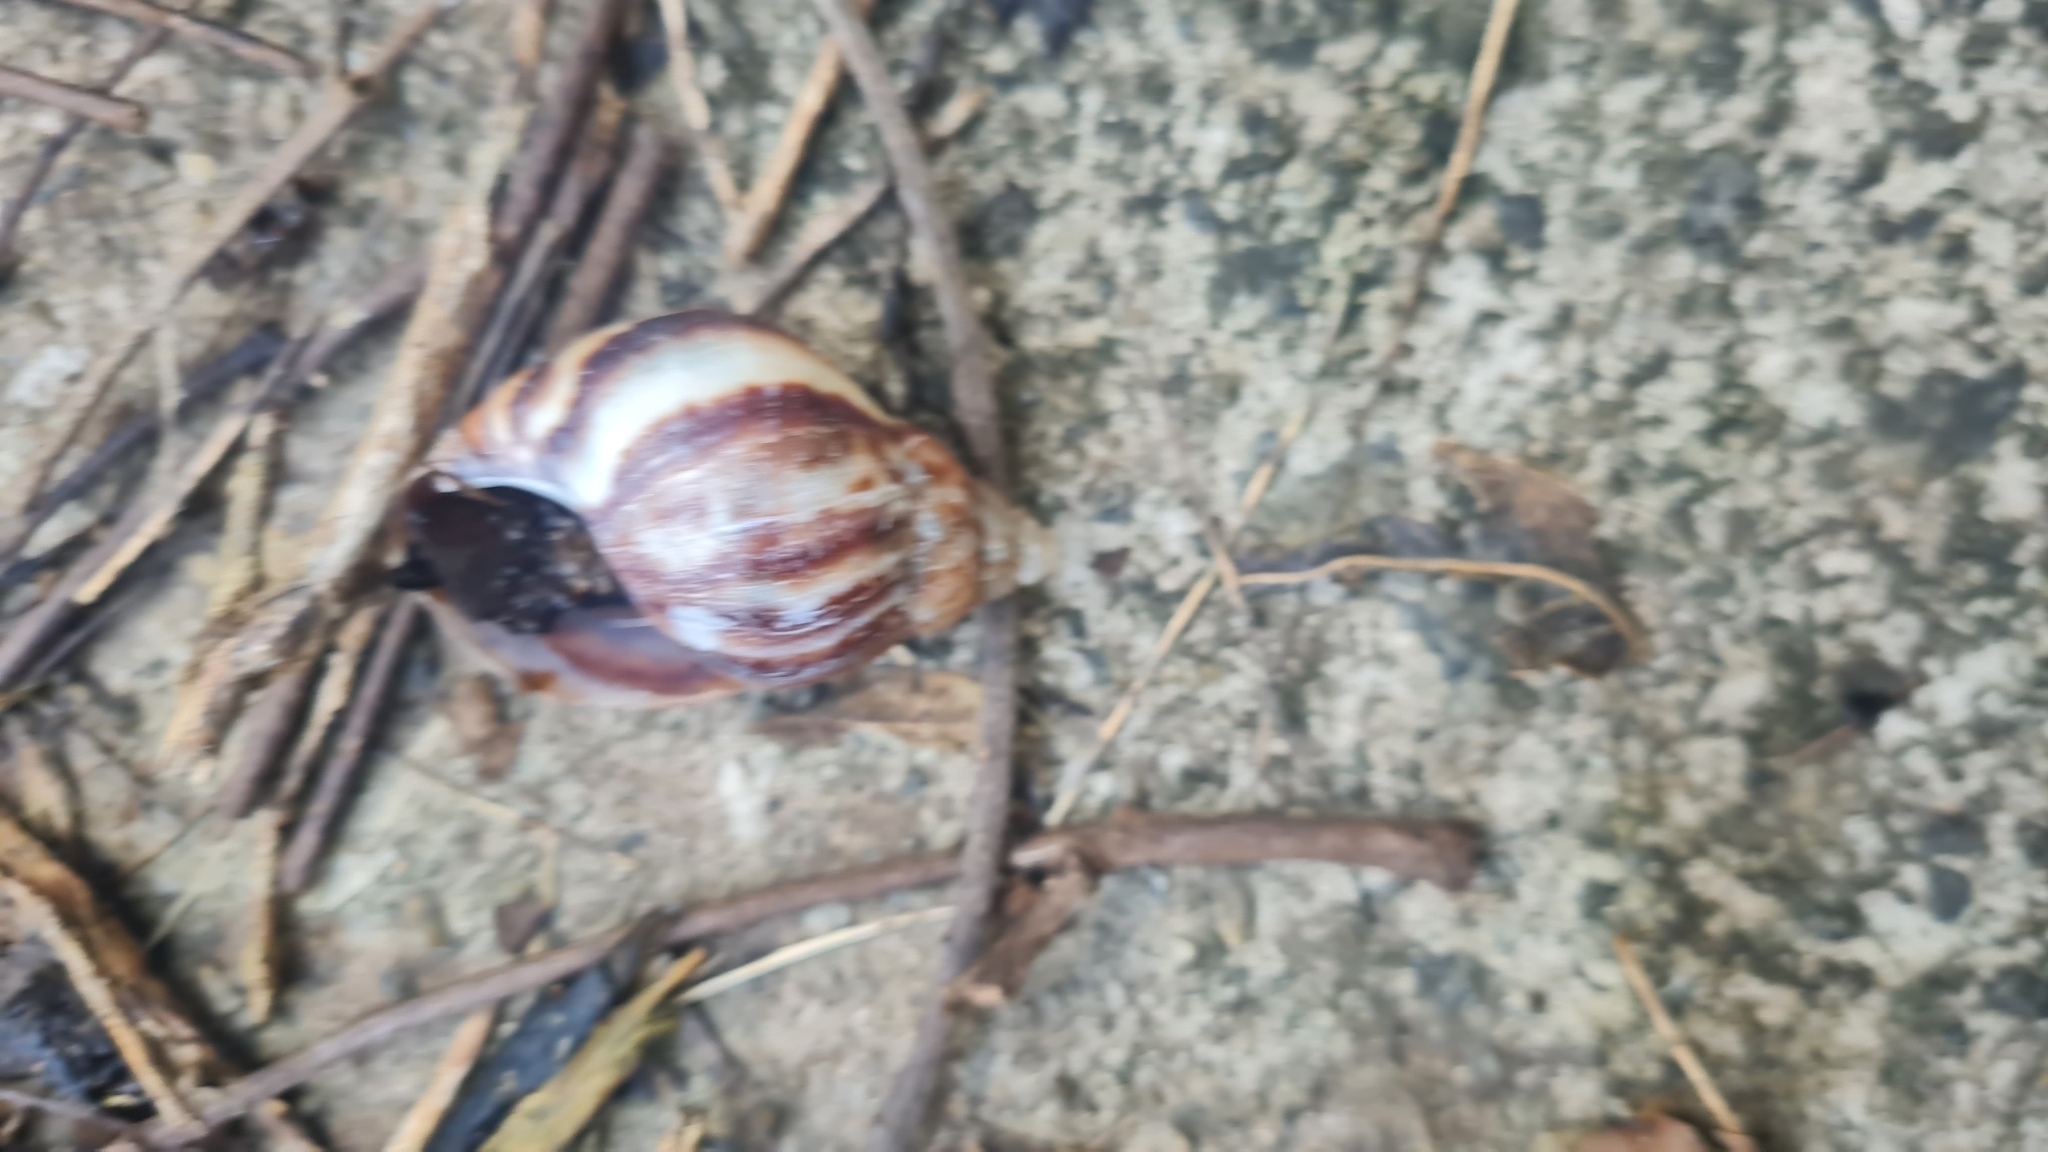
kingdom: Animalia
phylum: Mollusca
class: Gastropoda
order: Stylommatophora
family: Achatinidae
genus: Lissachatina
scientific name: Lissachatina fulica
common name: Giant african snail
